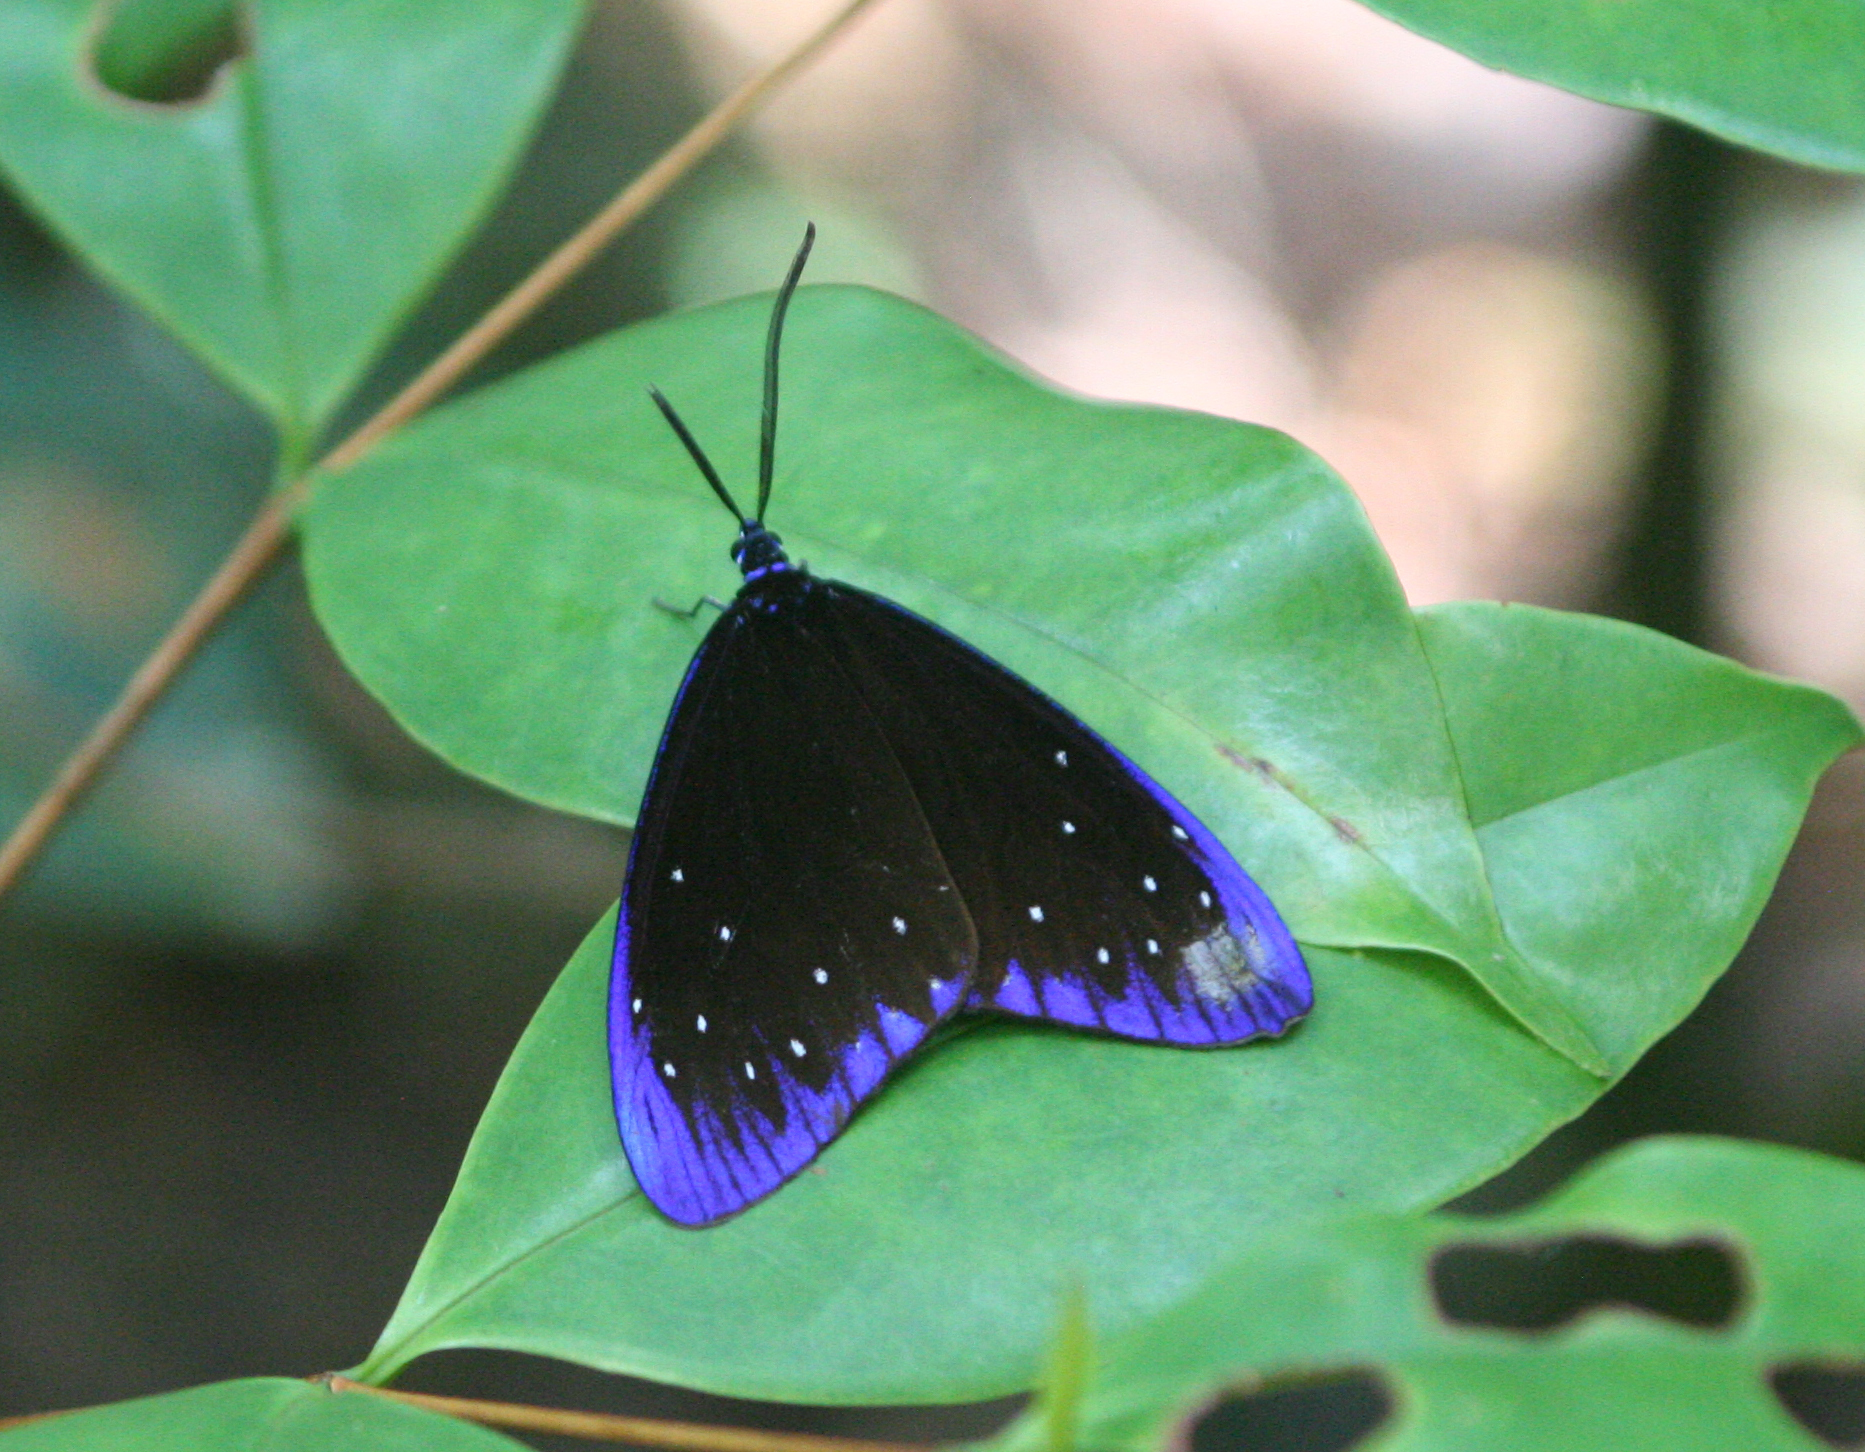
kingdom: Animalia
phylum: Arthropoda
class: Insecta
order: Lepidoptera
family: Zygaenidae
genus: Cyclosia
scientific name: Cyclosia midama
